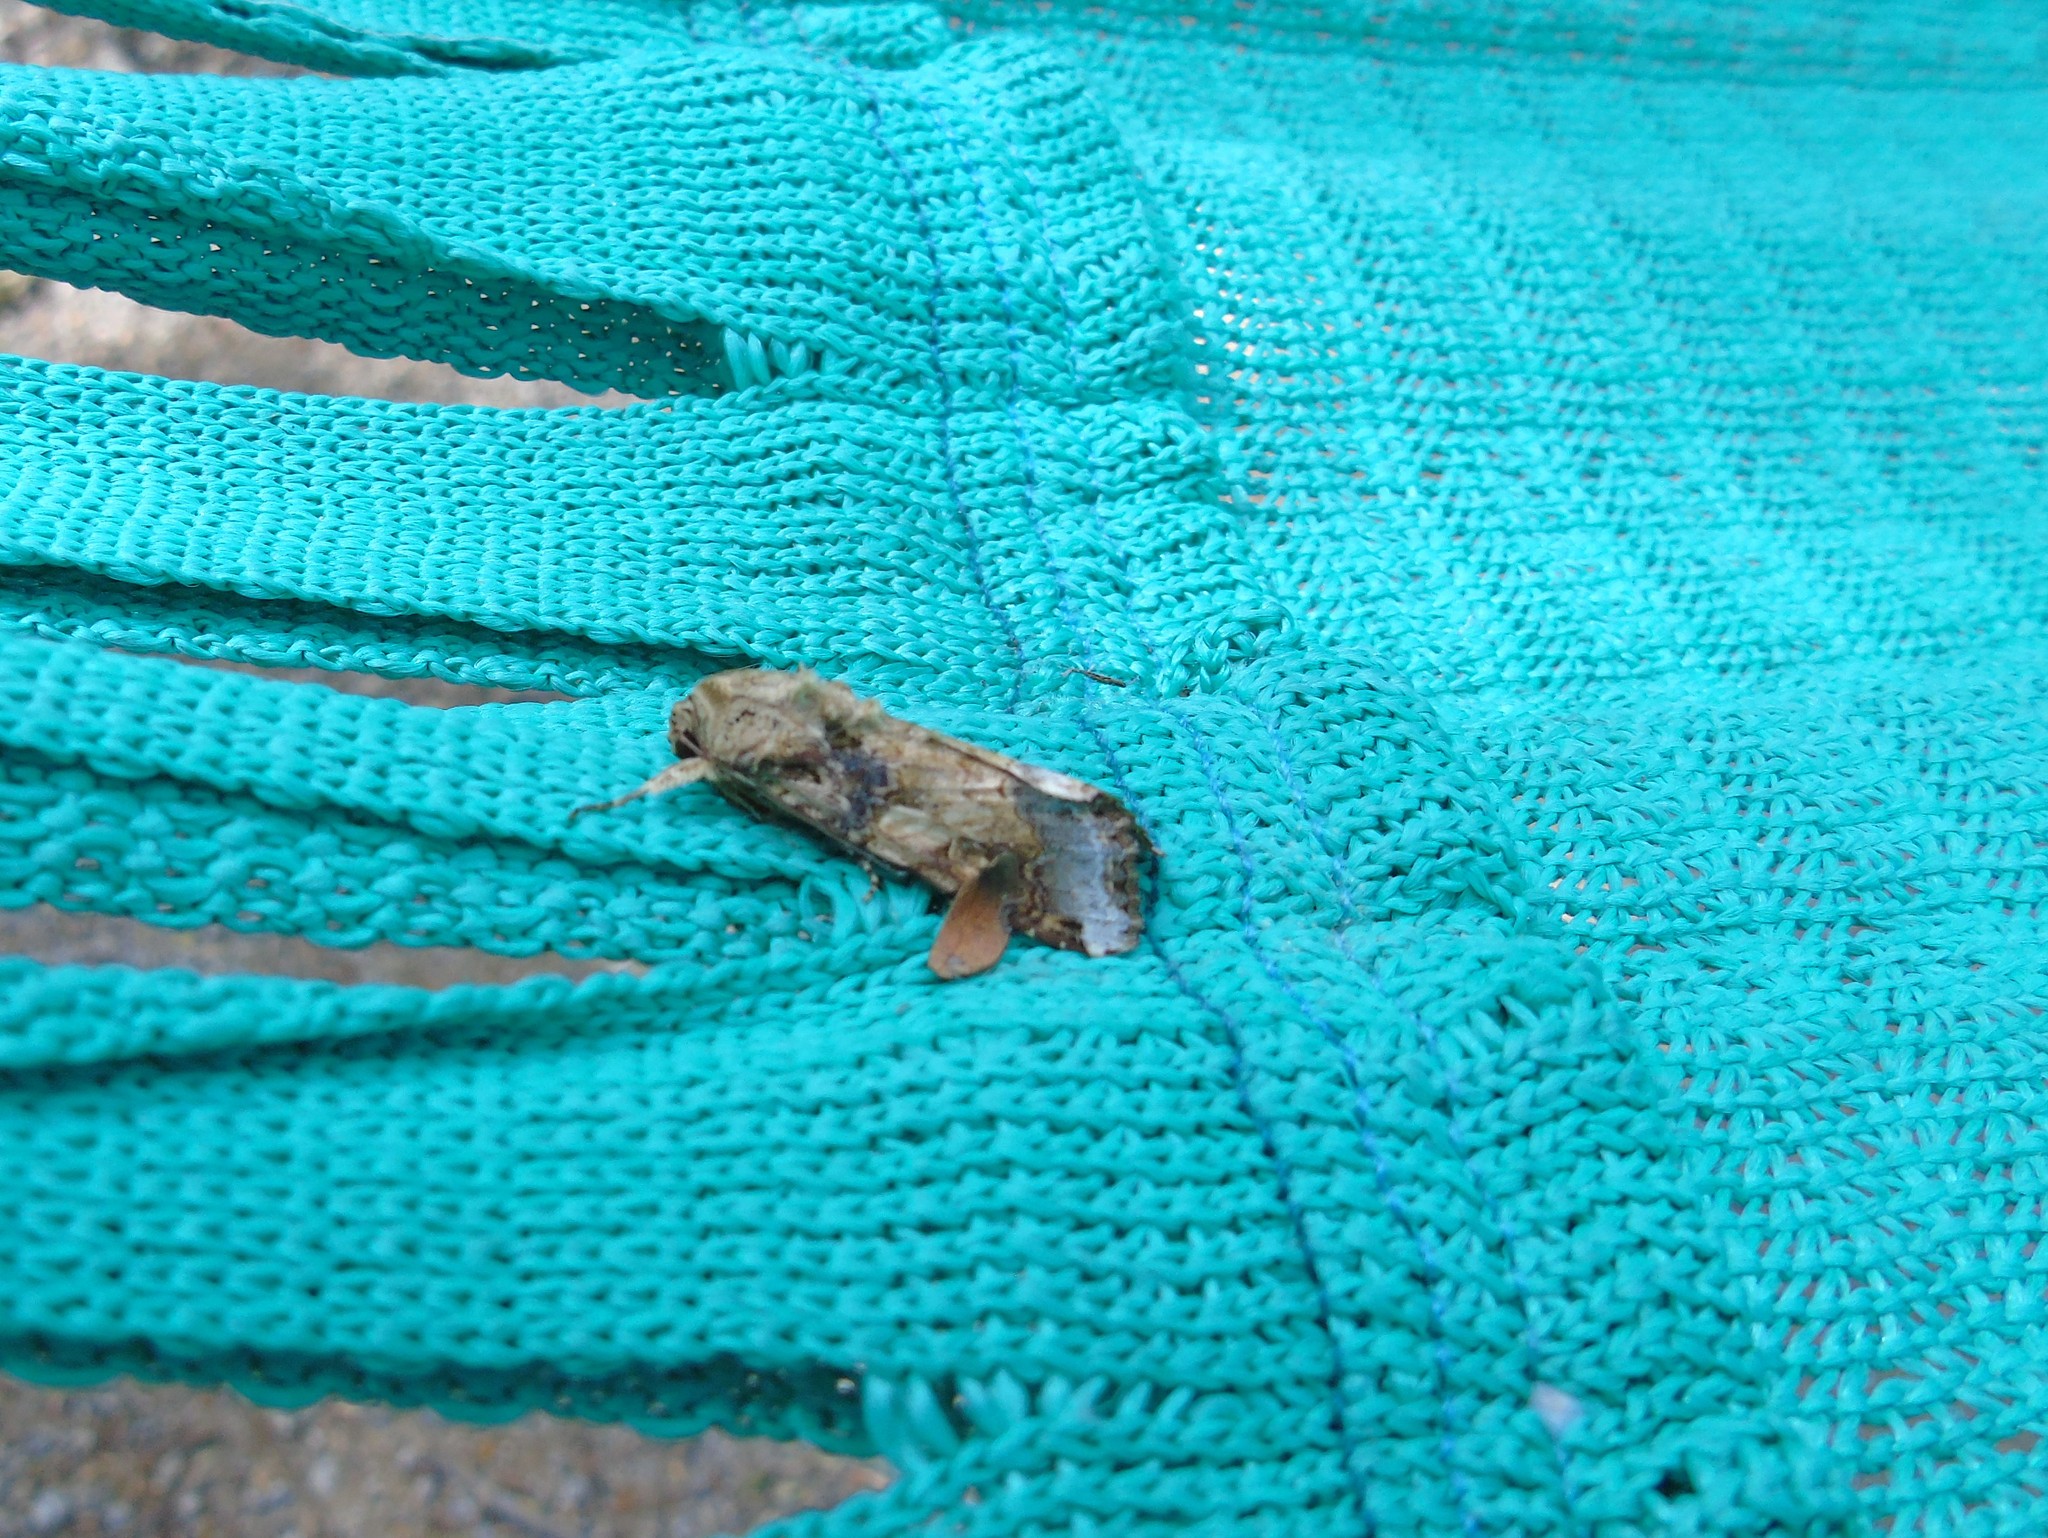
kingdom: Animalia
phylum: Arthropoda
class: Insecta
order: Lepidoptera
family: Noctuidae
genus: Spodoptera
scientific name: Spodoptera latifascia
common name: Velvet armyworm moth
